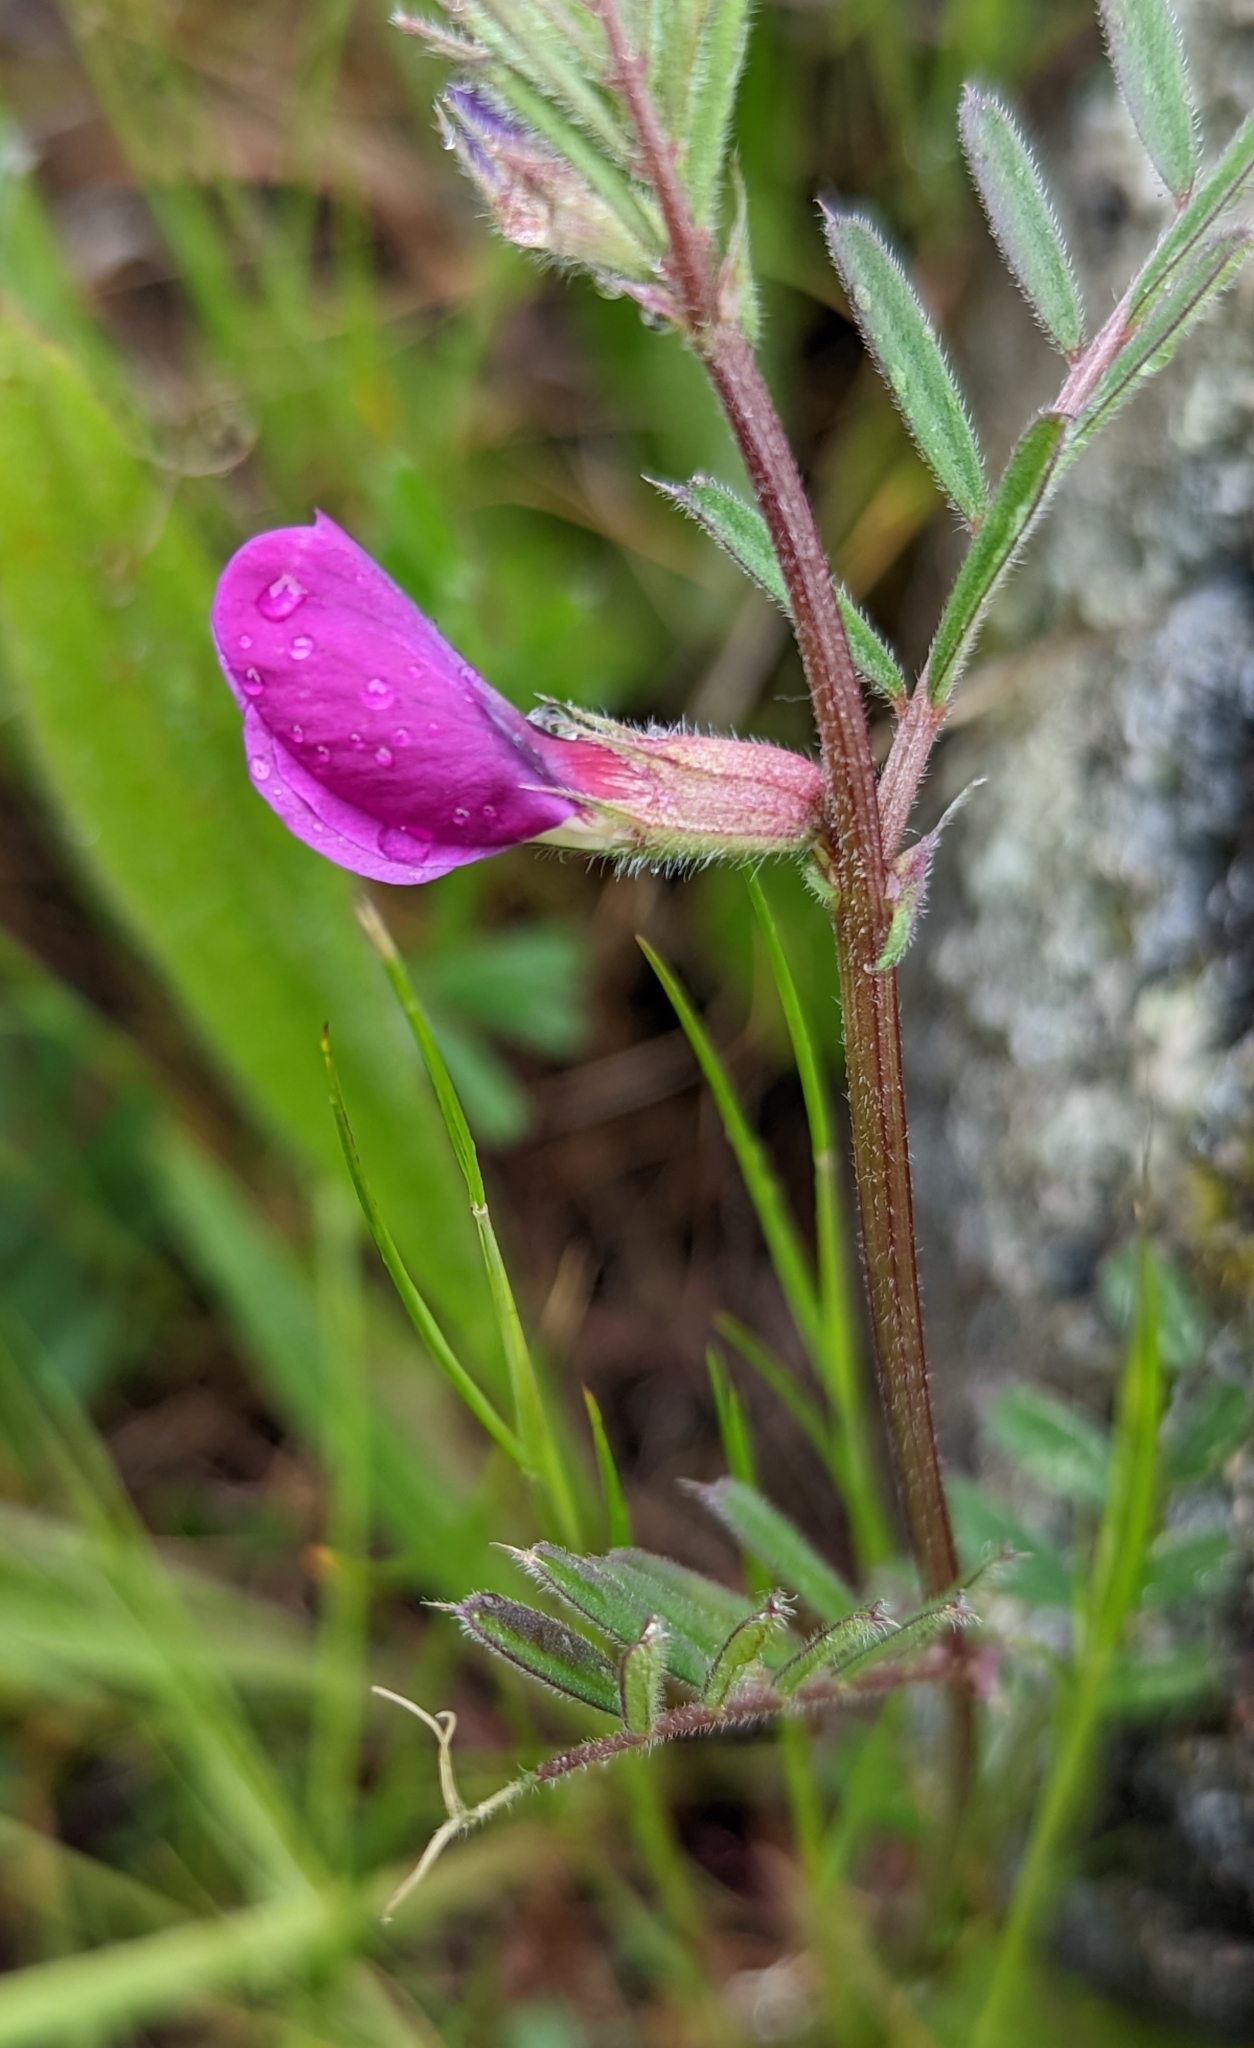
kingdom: Plantae
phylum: Tracheophyta
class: Magnoliopsida
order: Fabales
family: Fabaceae
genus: Vicia
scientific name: Vicia sativa
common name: Garden vetch
